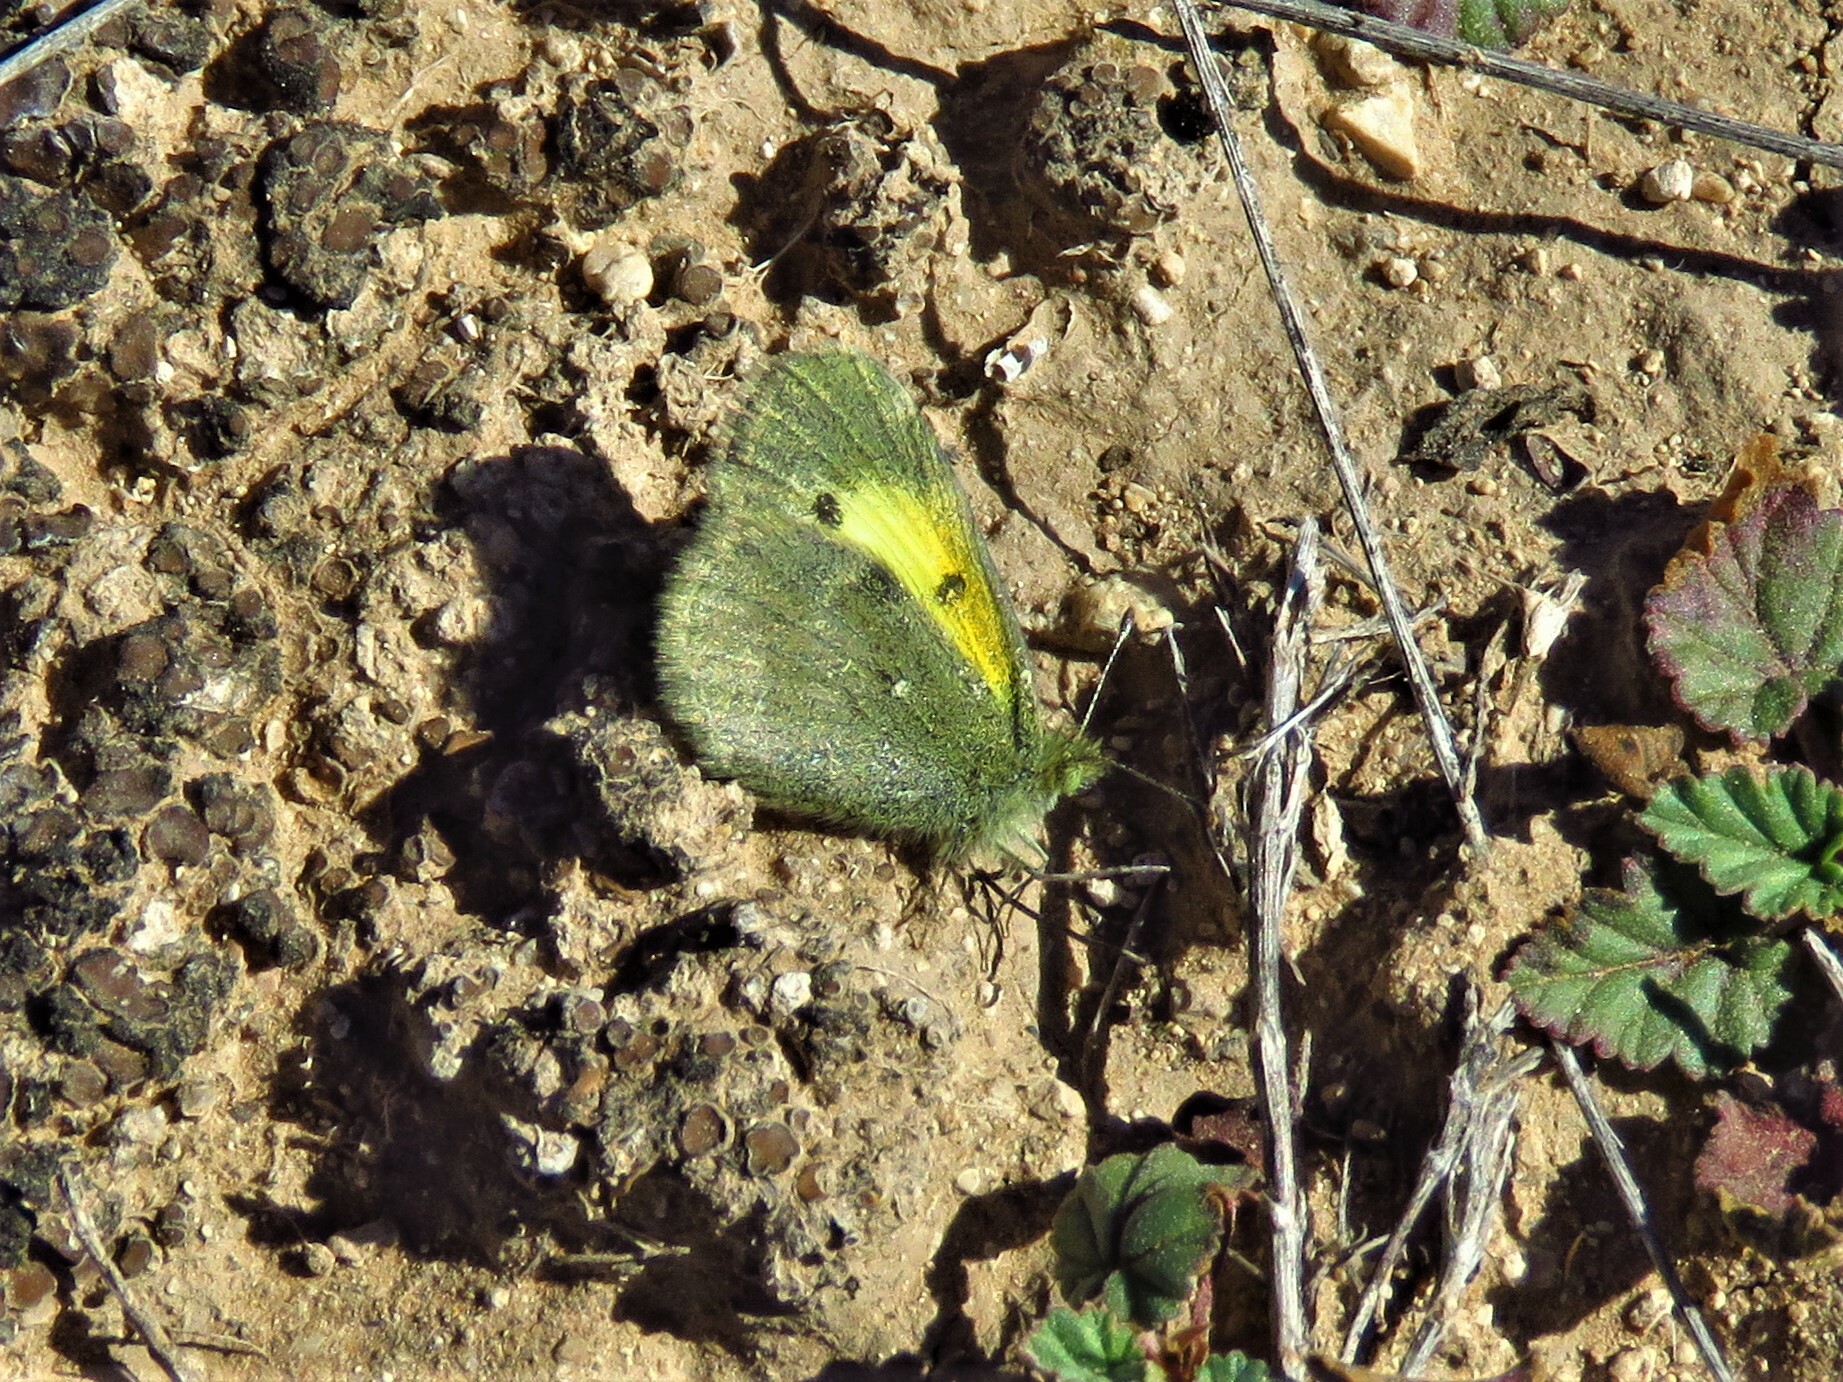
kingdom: Animalia
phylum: Arthropoda
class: Insecta
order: Lepidoptera
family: Pieridae
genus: Nathalis
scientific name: Nathalis iole
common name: Dainty sulphur
